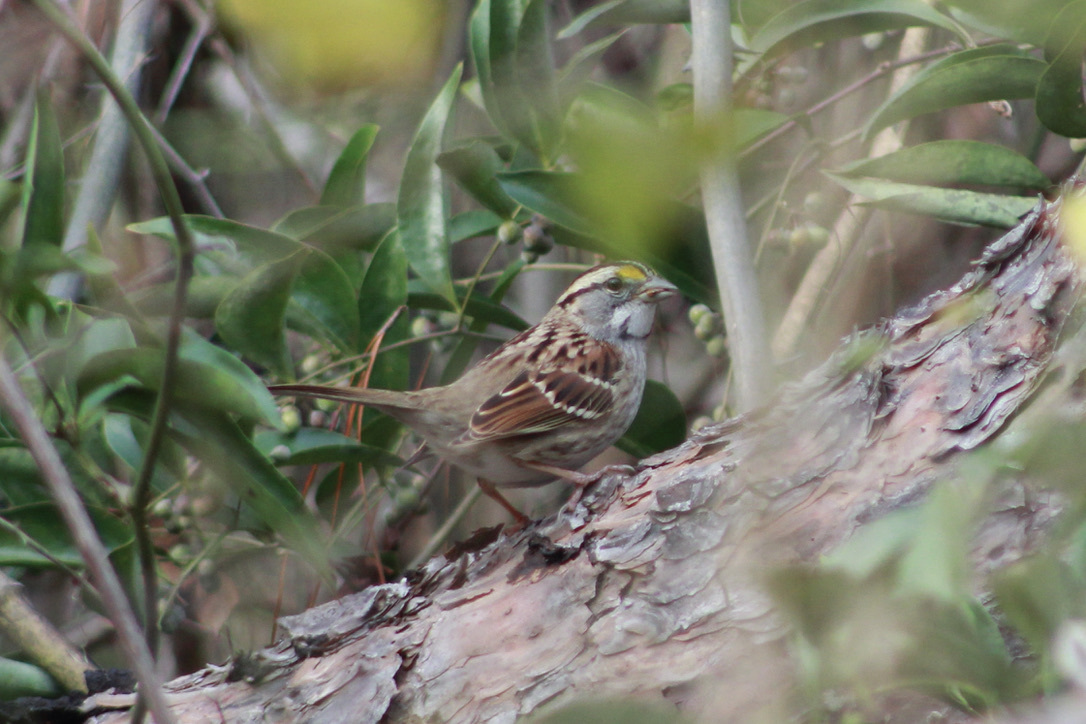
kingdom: Animalia
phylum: Chordata
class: Aves
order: Passeriformes
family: Passerellidae
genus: Zonotrichia
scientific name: Zonotrichia albicollis
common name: White-throated sparrow
